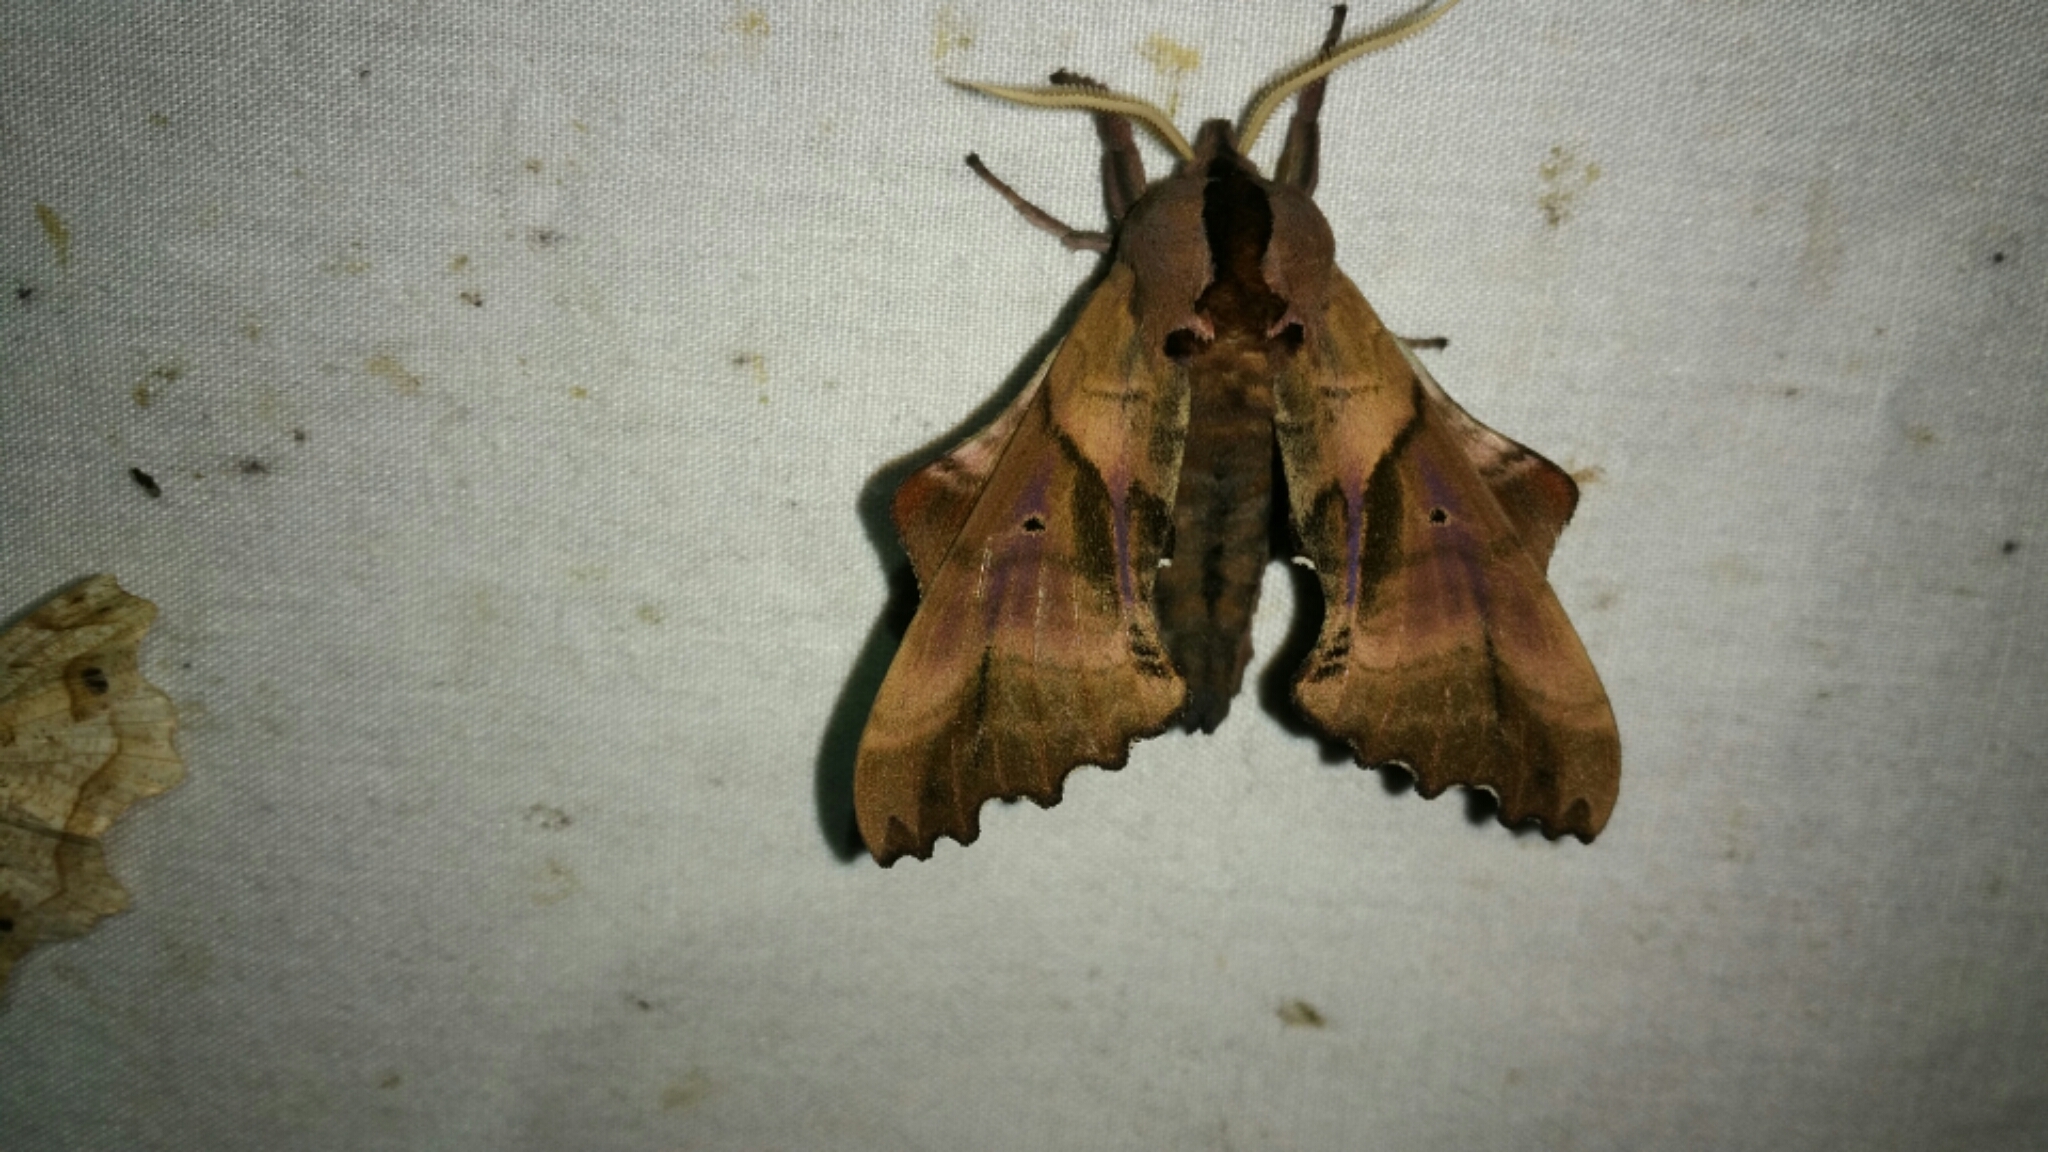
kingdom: Animalia
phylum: Arthropoda
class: Insecta
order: Lepidoptera
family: Sphingidae
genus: Paonias
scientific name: Paonias excaecata
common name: Blind-eyed sphinx
